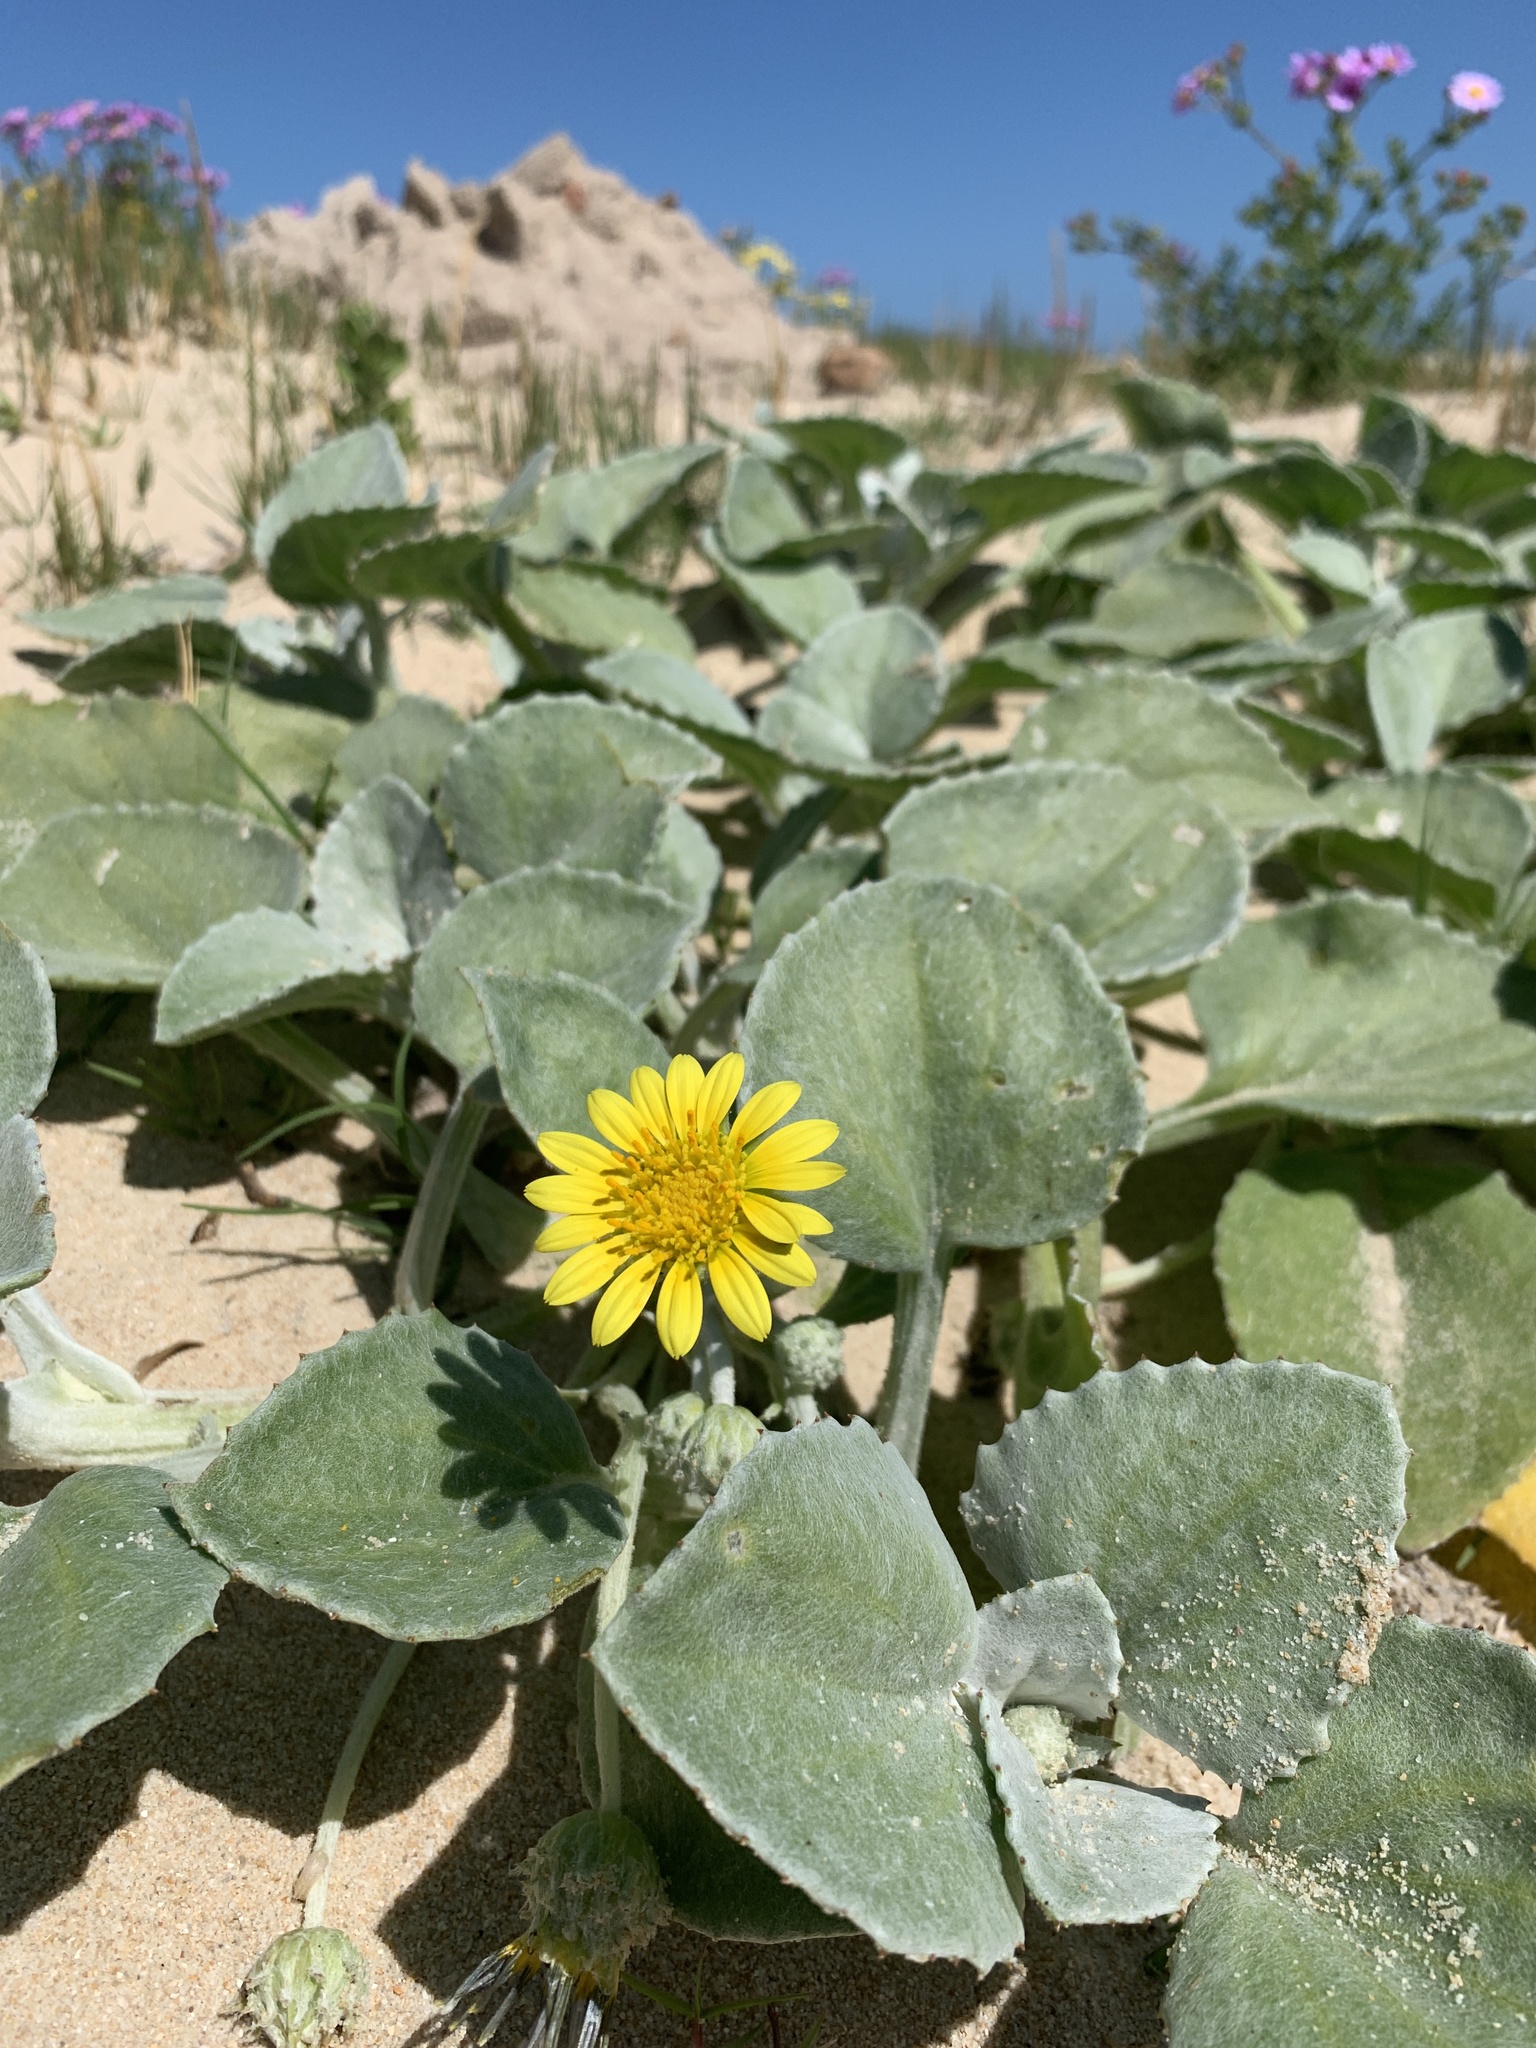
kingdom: Plantae
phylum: Tracheophyta
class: Magnoliopsida
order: Asterales
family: Asteraceae
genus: Arctotheca
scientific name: Arctotheca populifolia
